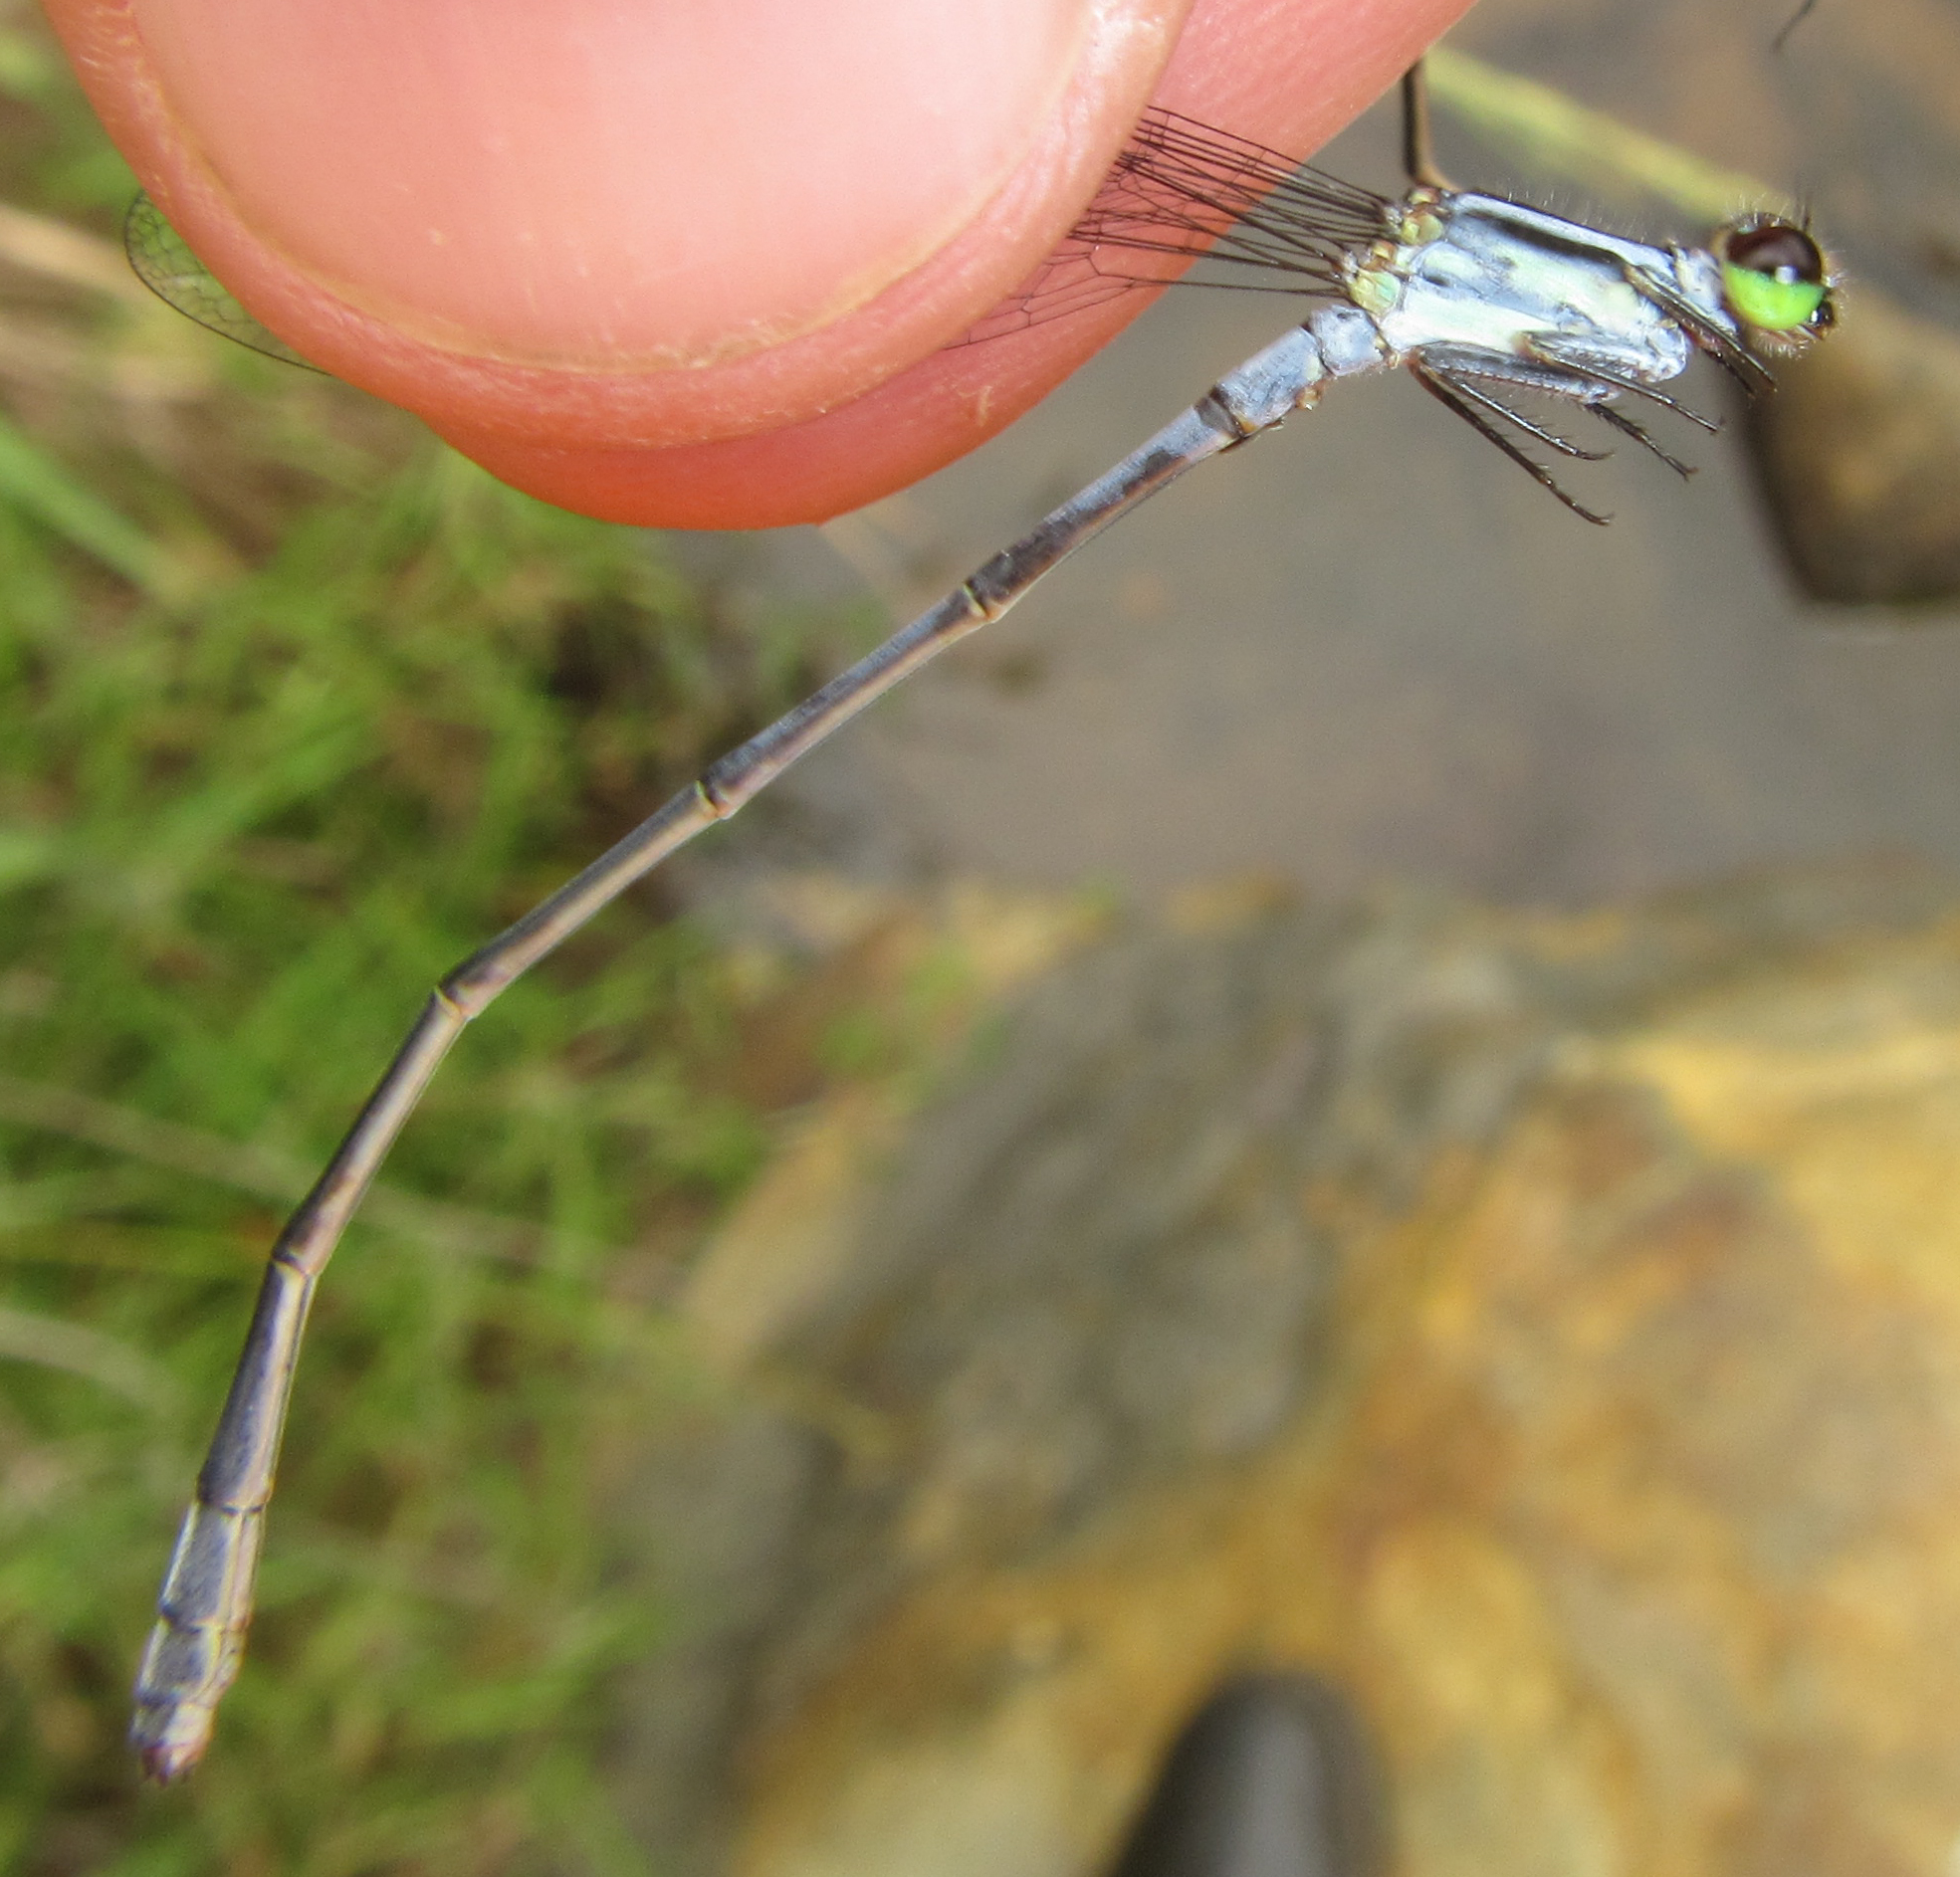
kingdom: Animalia
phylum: Arthropoda
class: Insecta
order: Odonata
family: Coenagrionidae
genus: Pseudagrion
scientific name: Pseudagrion kersteni
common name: Powder-faced sprite
